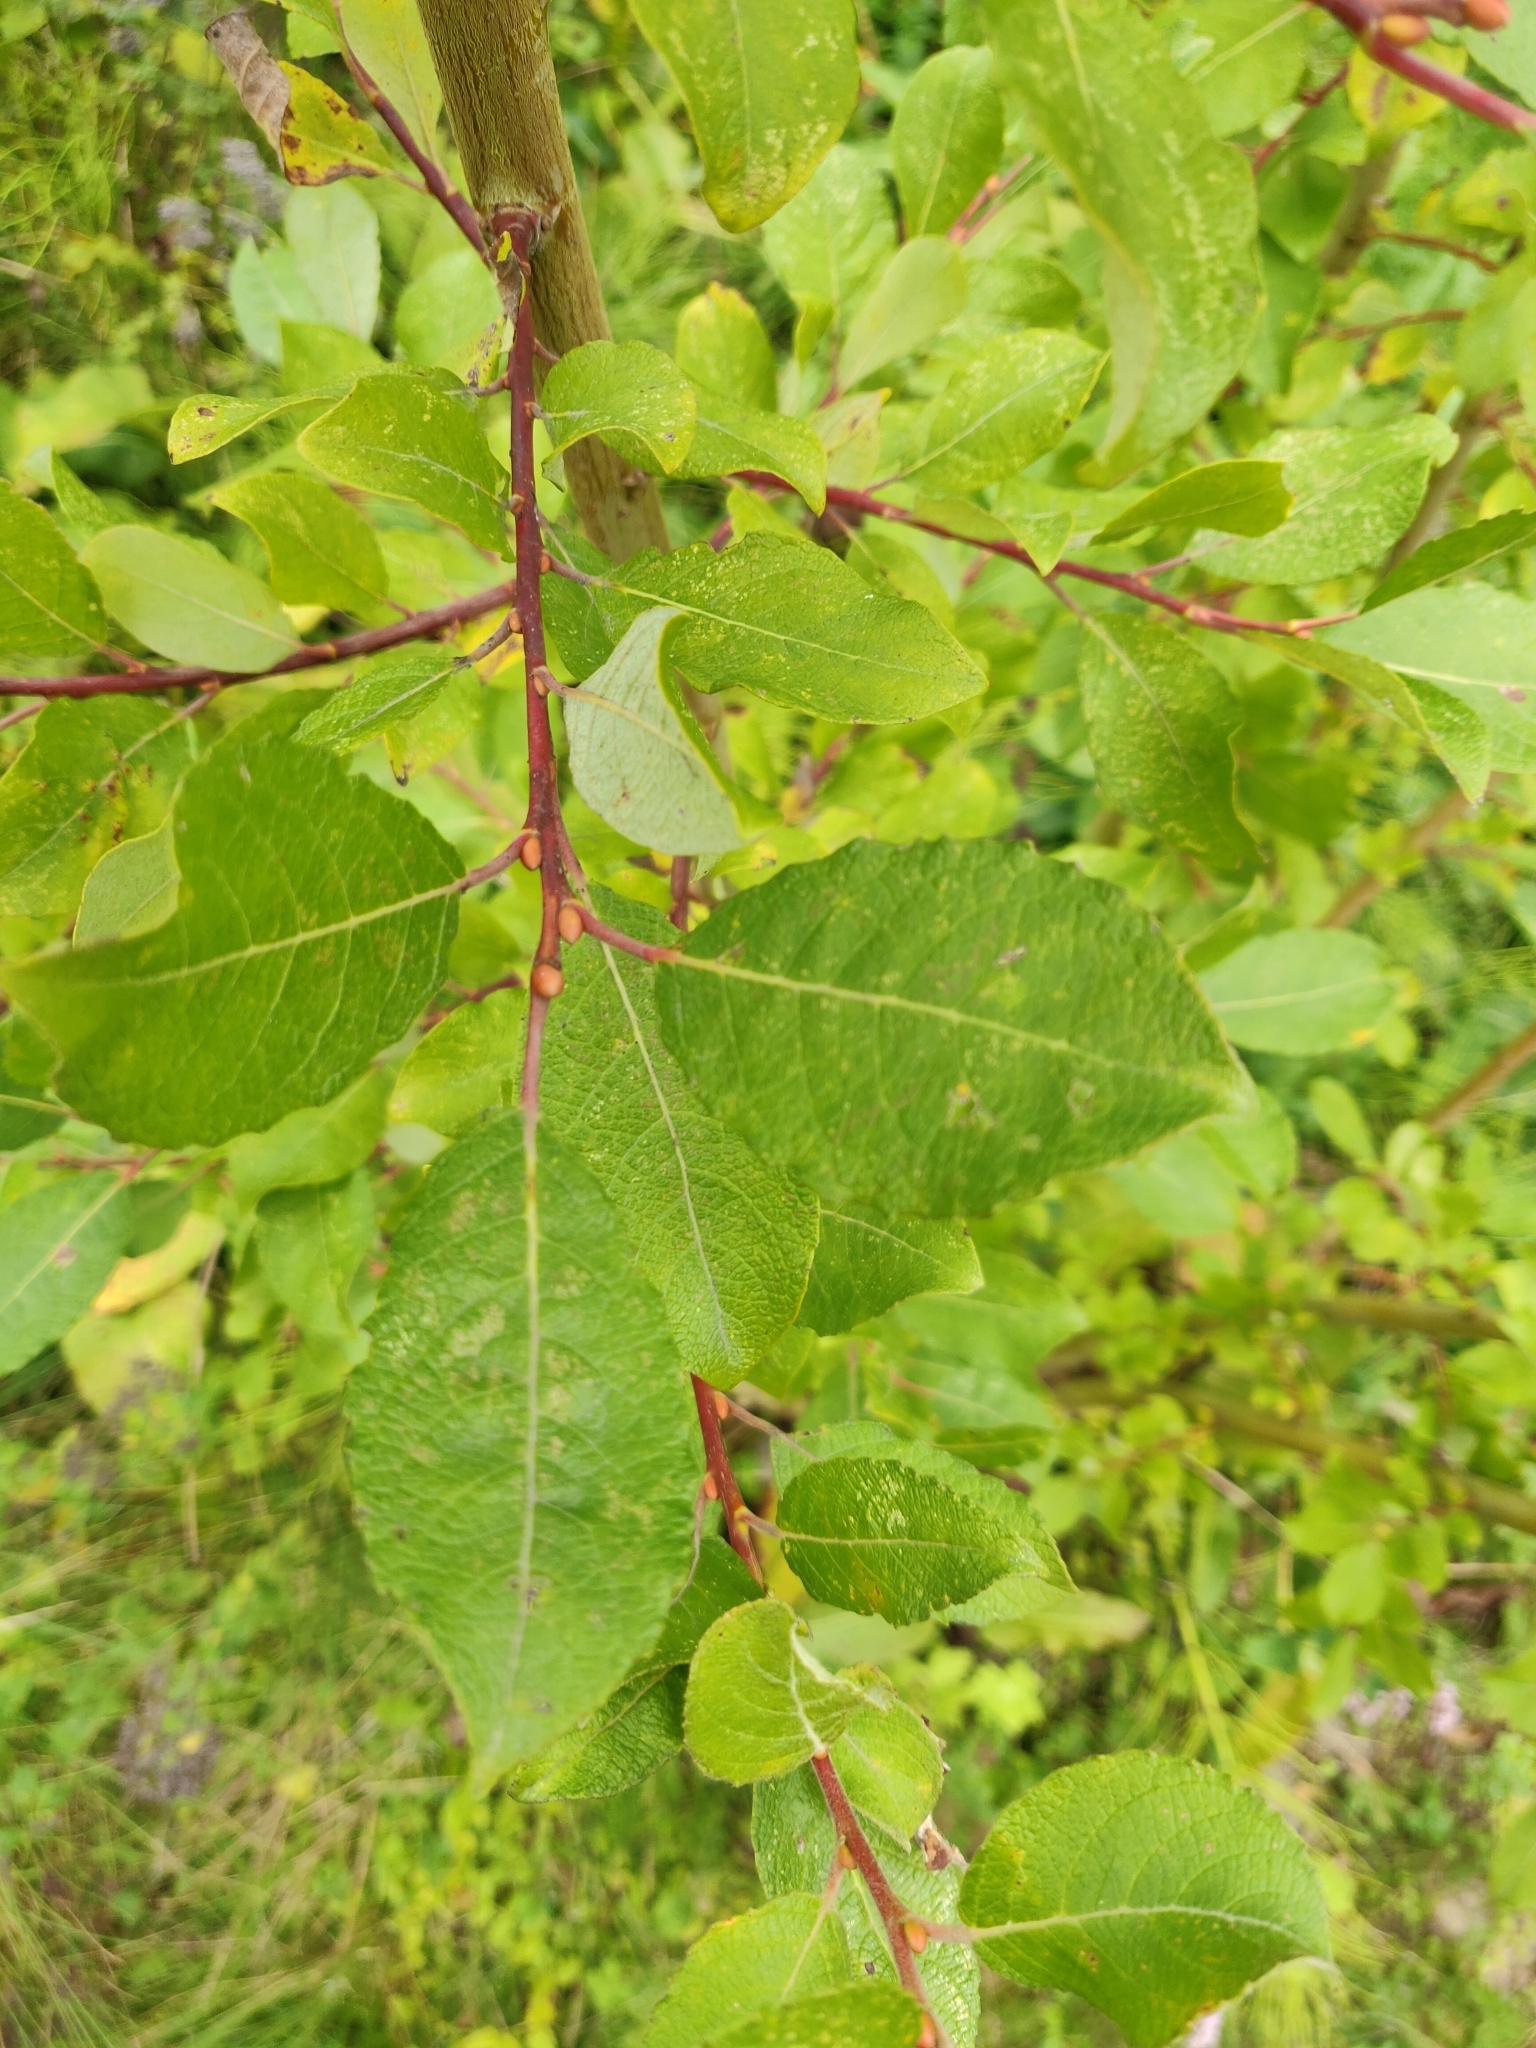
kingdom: Plantae
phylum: Tracheophyta
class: Magnoliopsida
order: Malpighiales
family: Salicaceae
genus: Salix
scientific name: Salix caprea
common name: Goat willow
